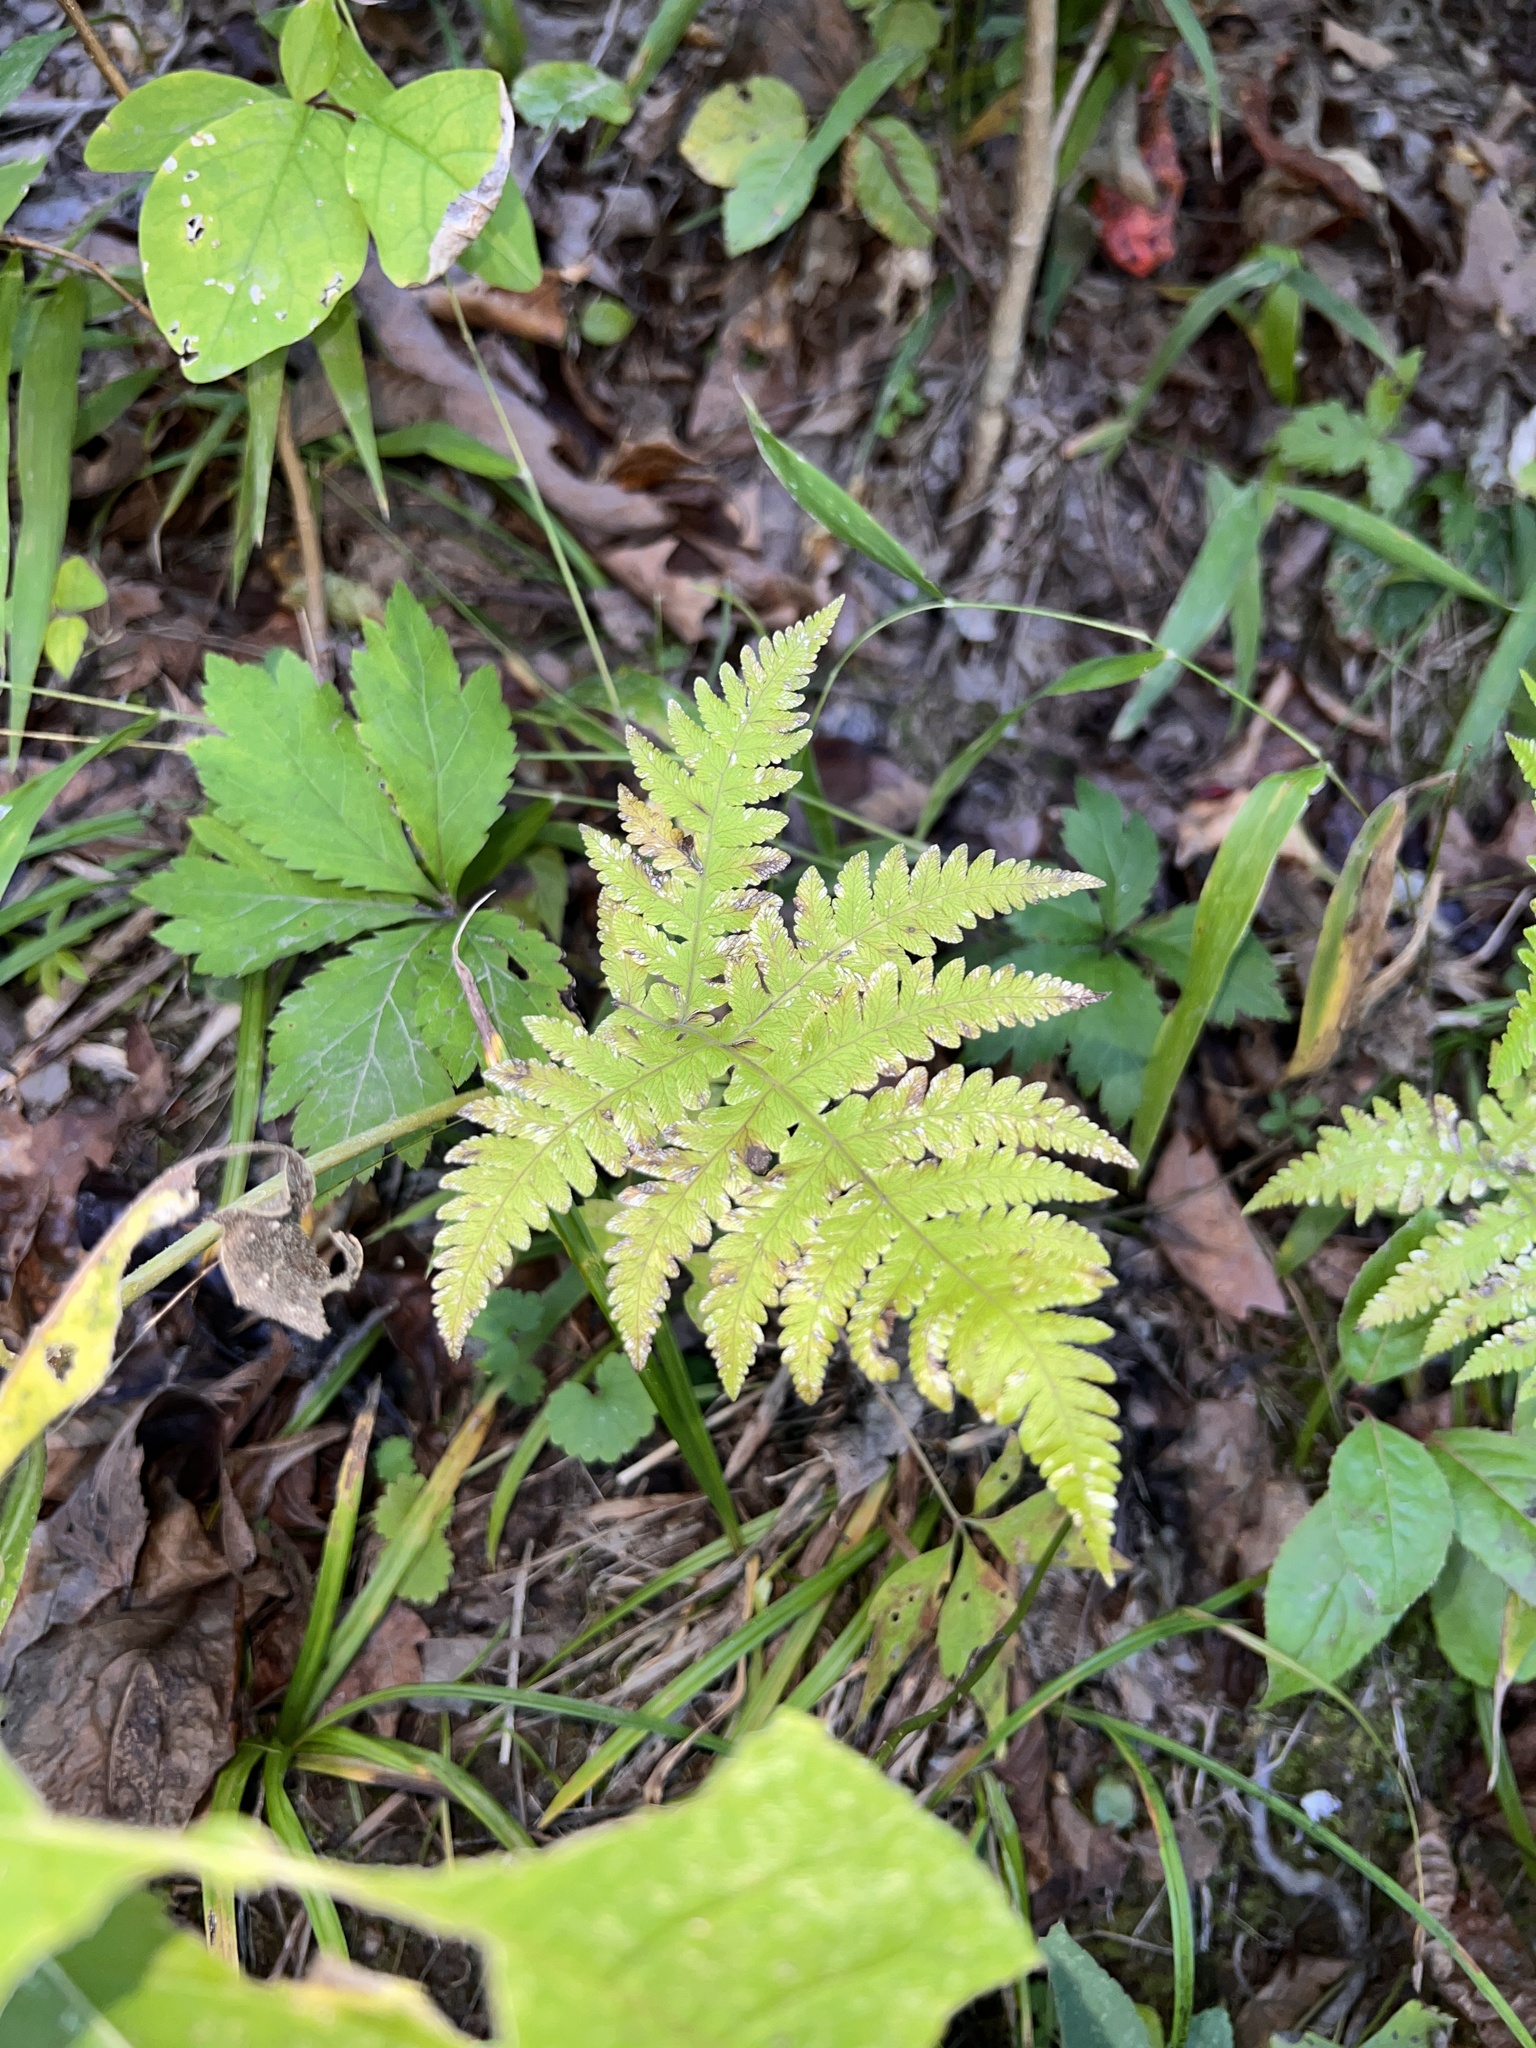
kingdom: Plantae
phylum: Tracheophyta
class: Polypodiopsida
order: Polypodiales
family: Thelypteridaceae
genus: Phegopteris
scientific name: Phegopteris hexagonoptera
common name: Broad beech fern
